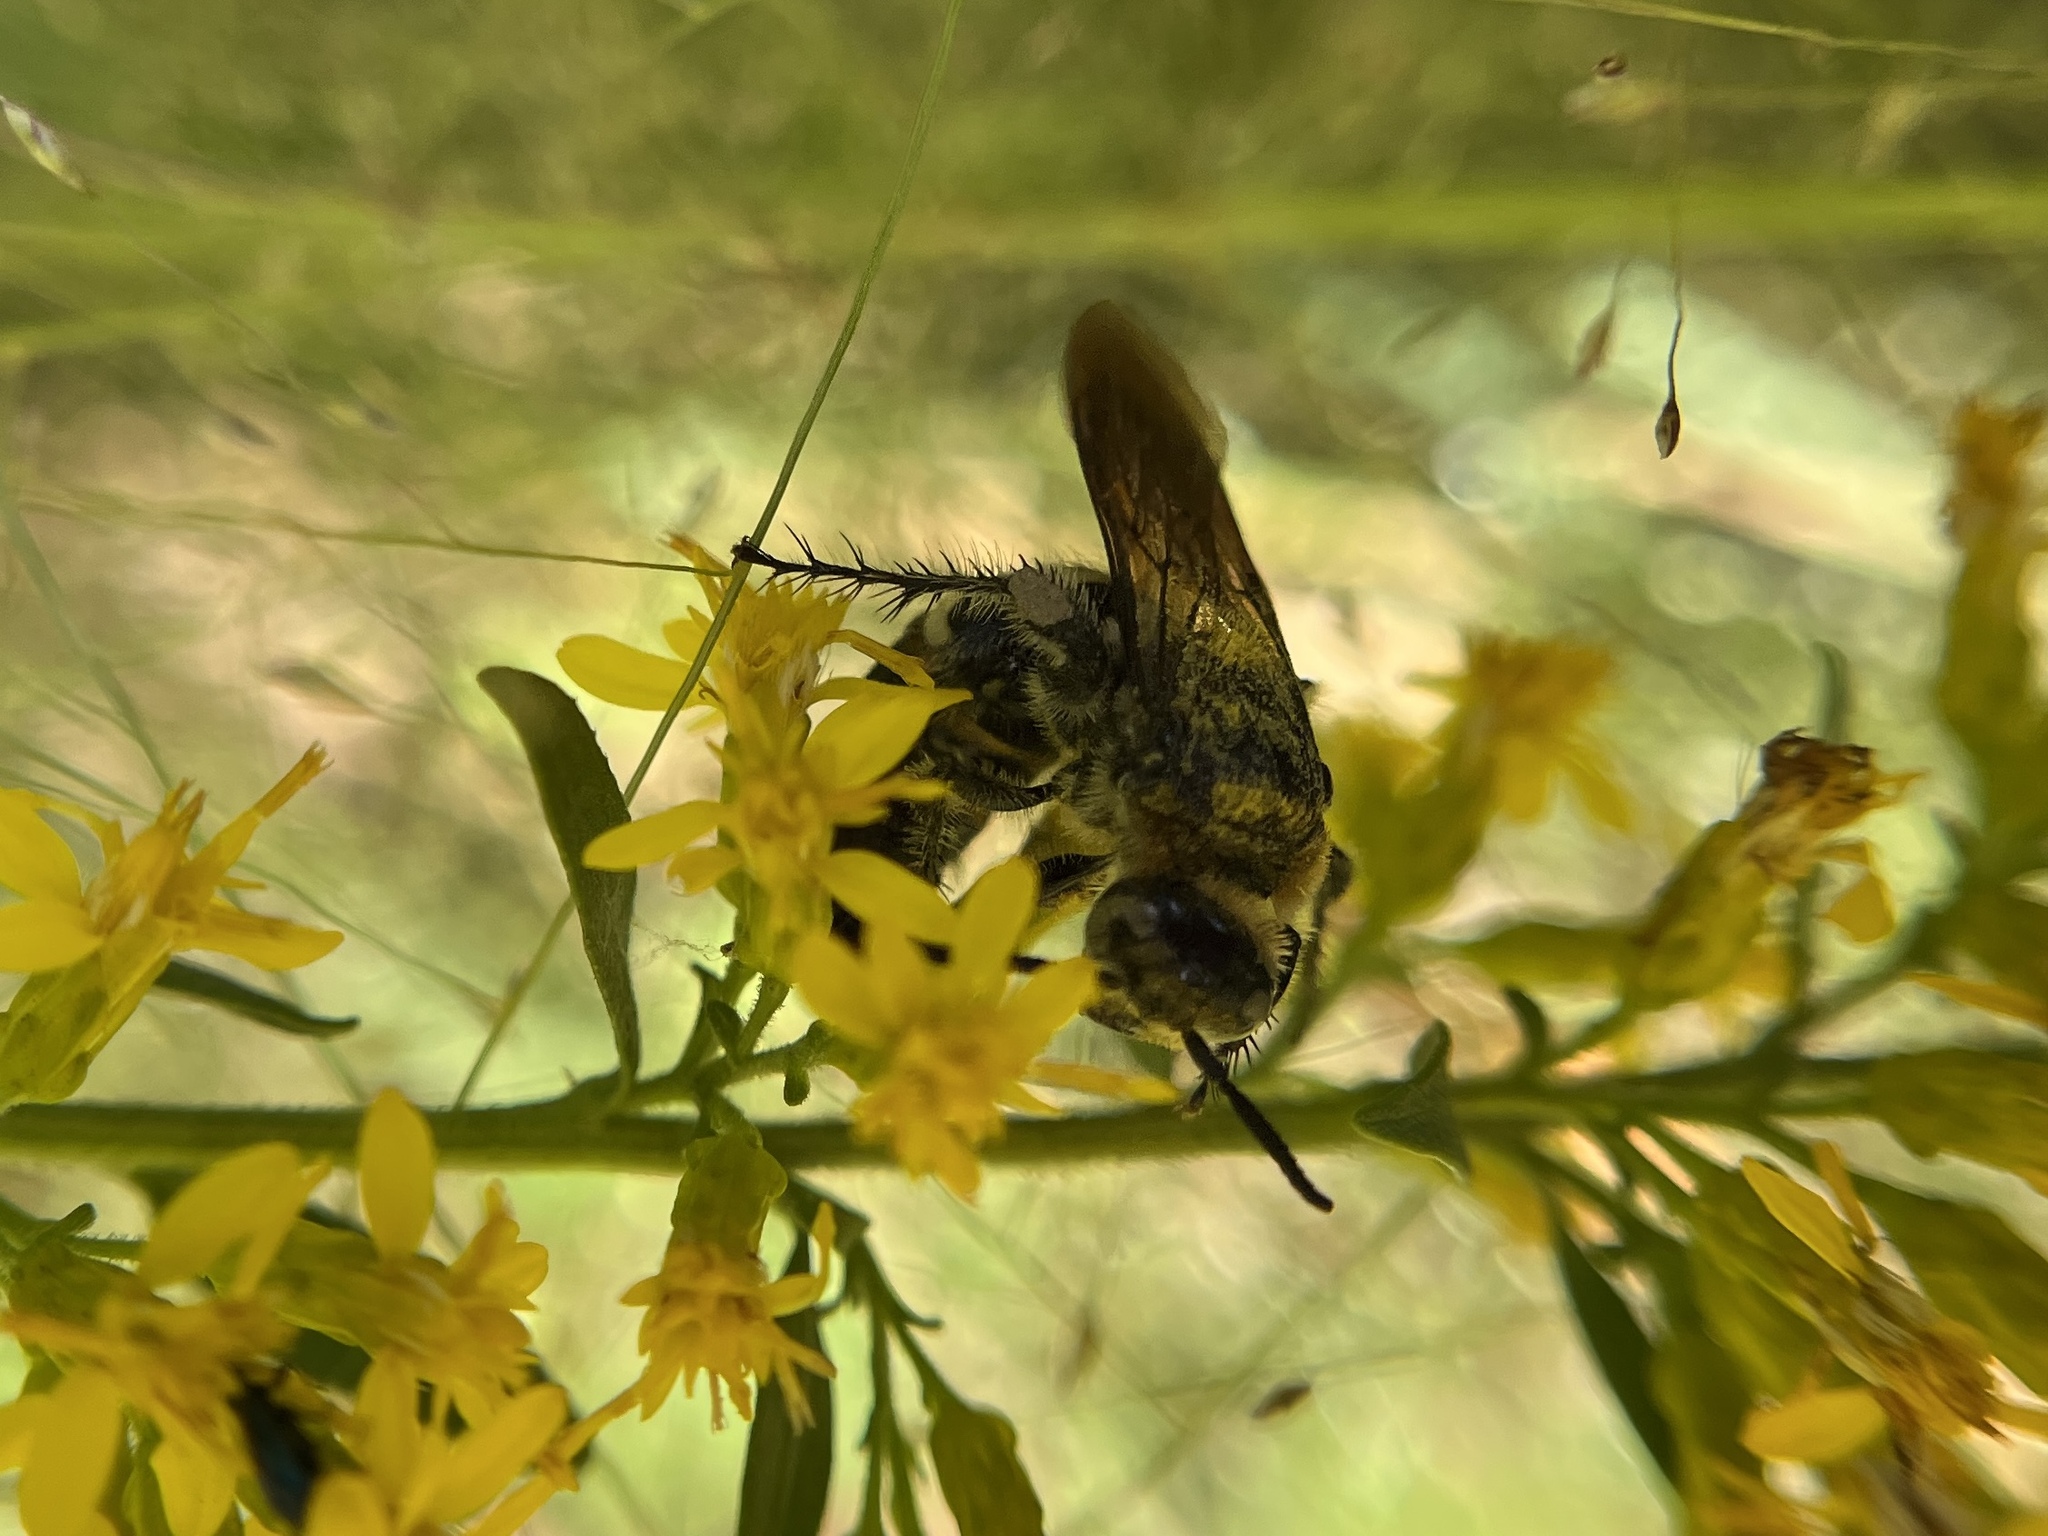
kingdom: Animalia
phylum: Arthropoda
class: Insecta
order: Hymenoptera
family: Scoliidae
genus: Dielis
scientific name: Dielis
